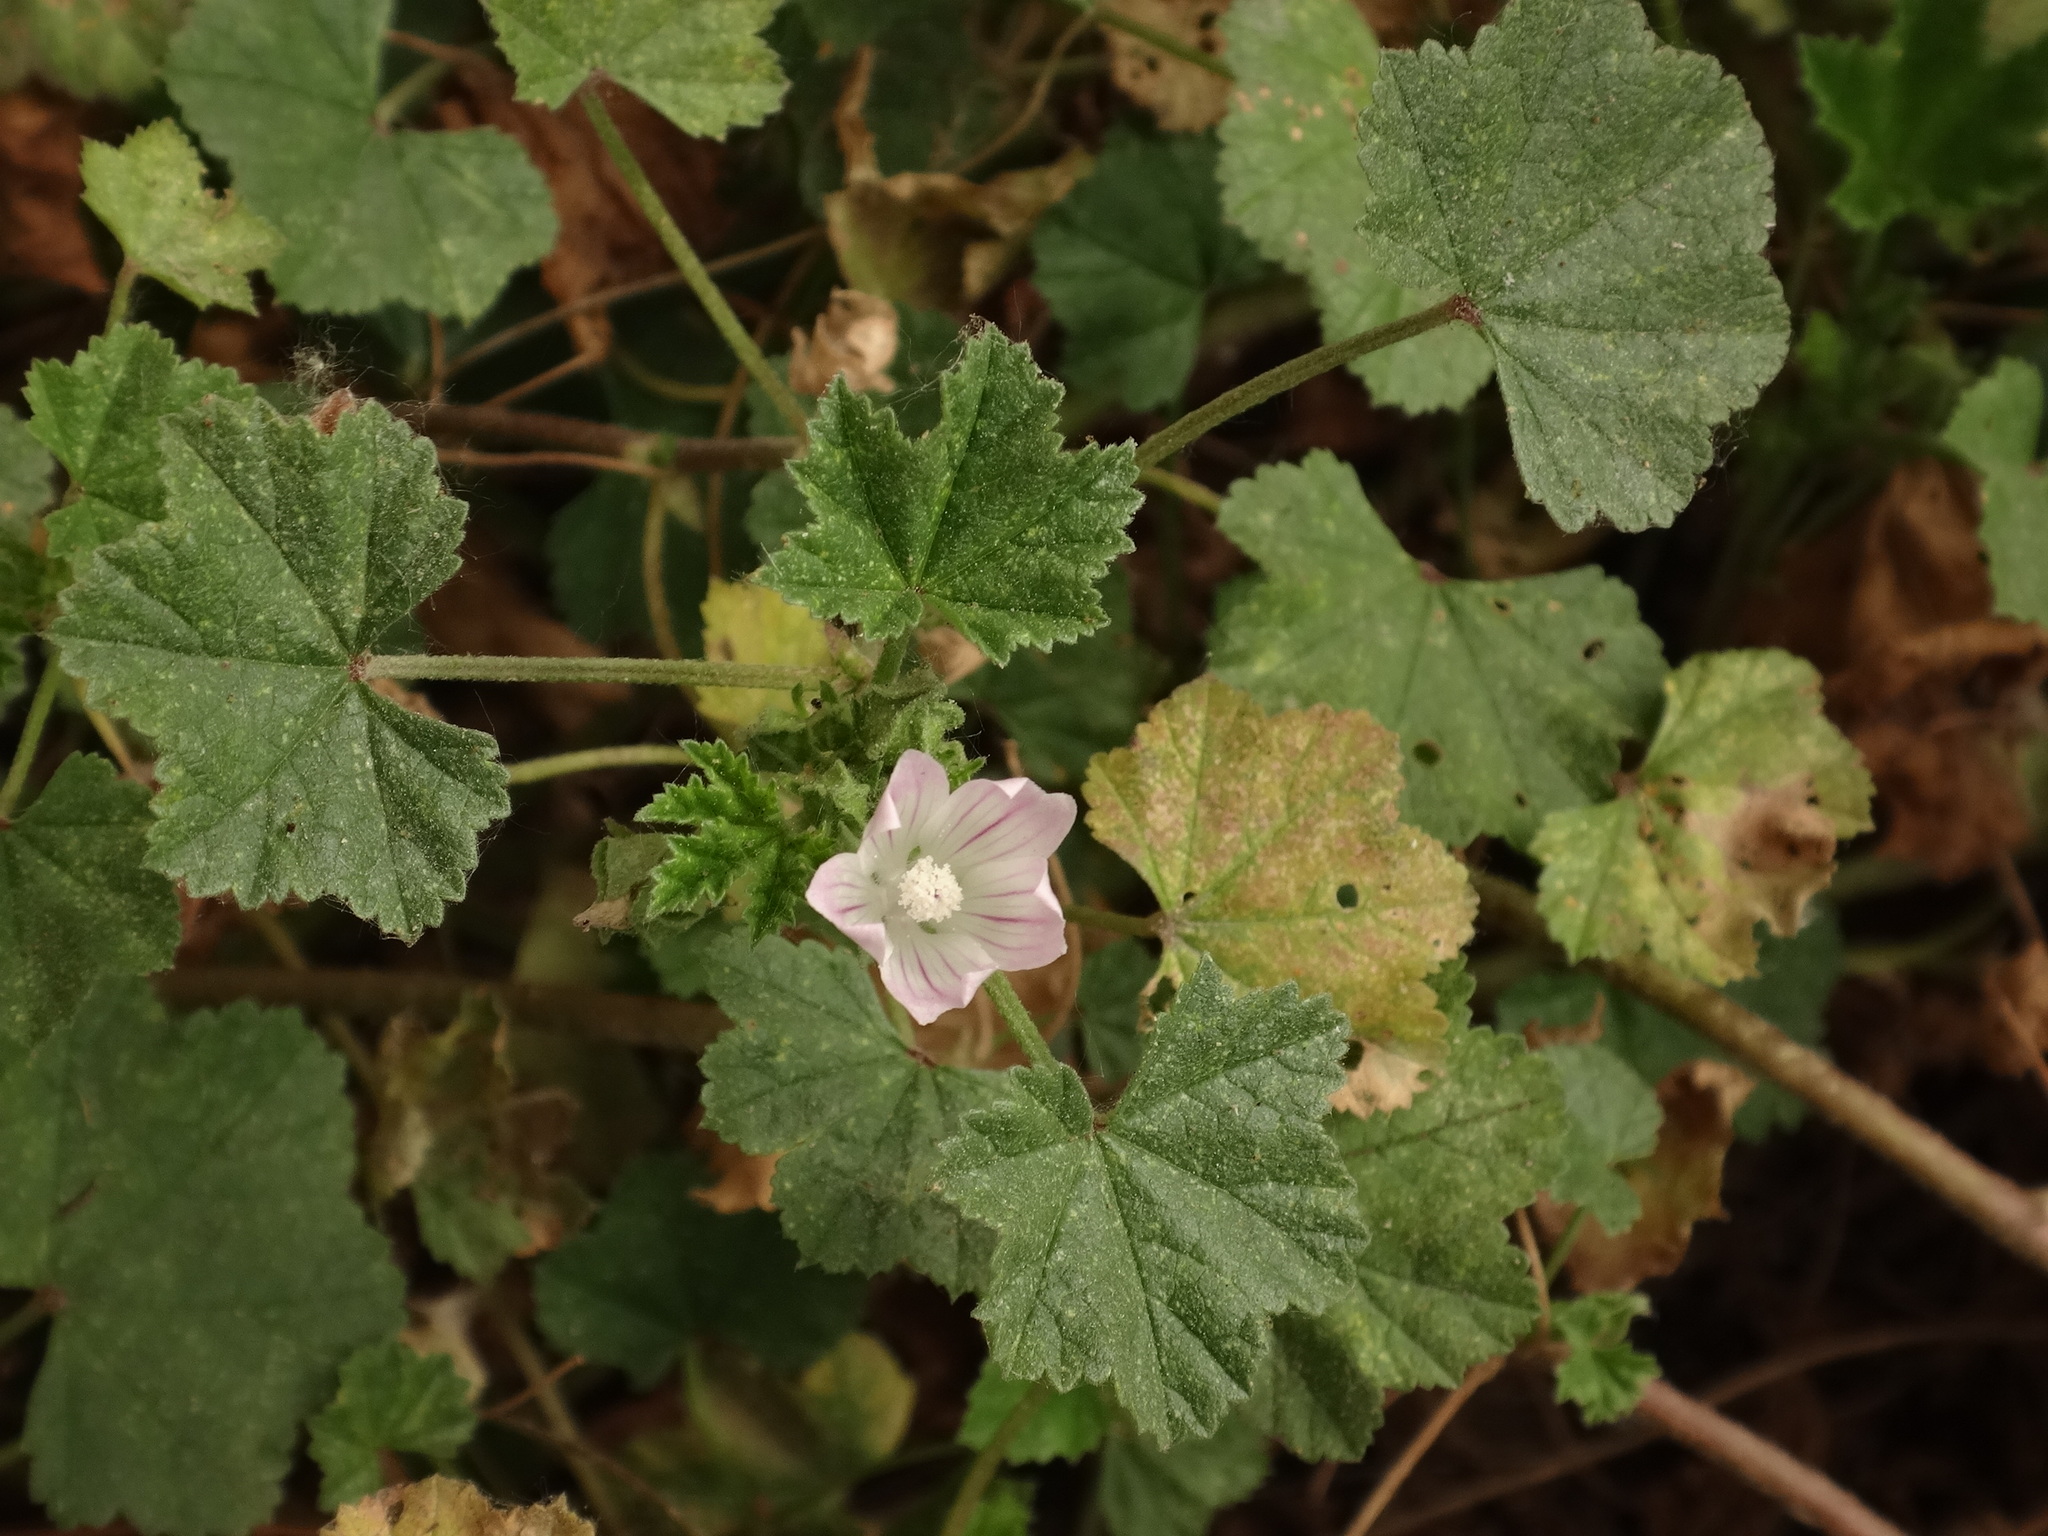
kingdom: Plantae
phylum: Tracheophyta
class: Magnoliopsida
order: Malvales
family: Malvaceae
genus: Malva
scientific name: Malva neglecta
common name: Common mallow
